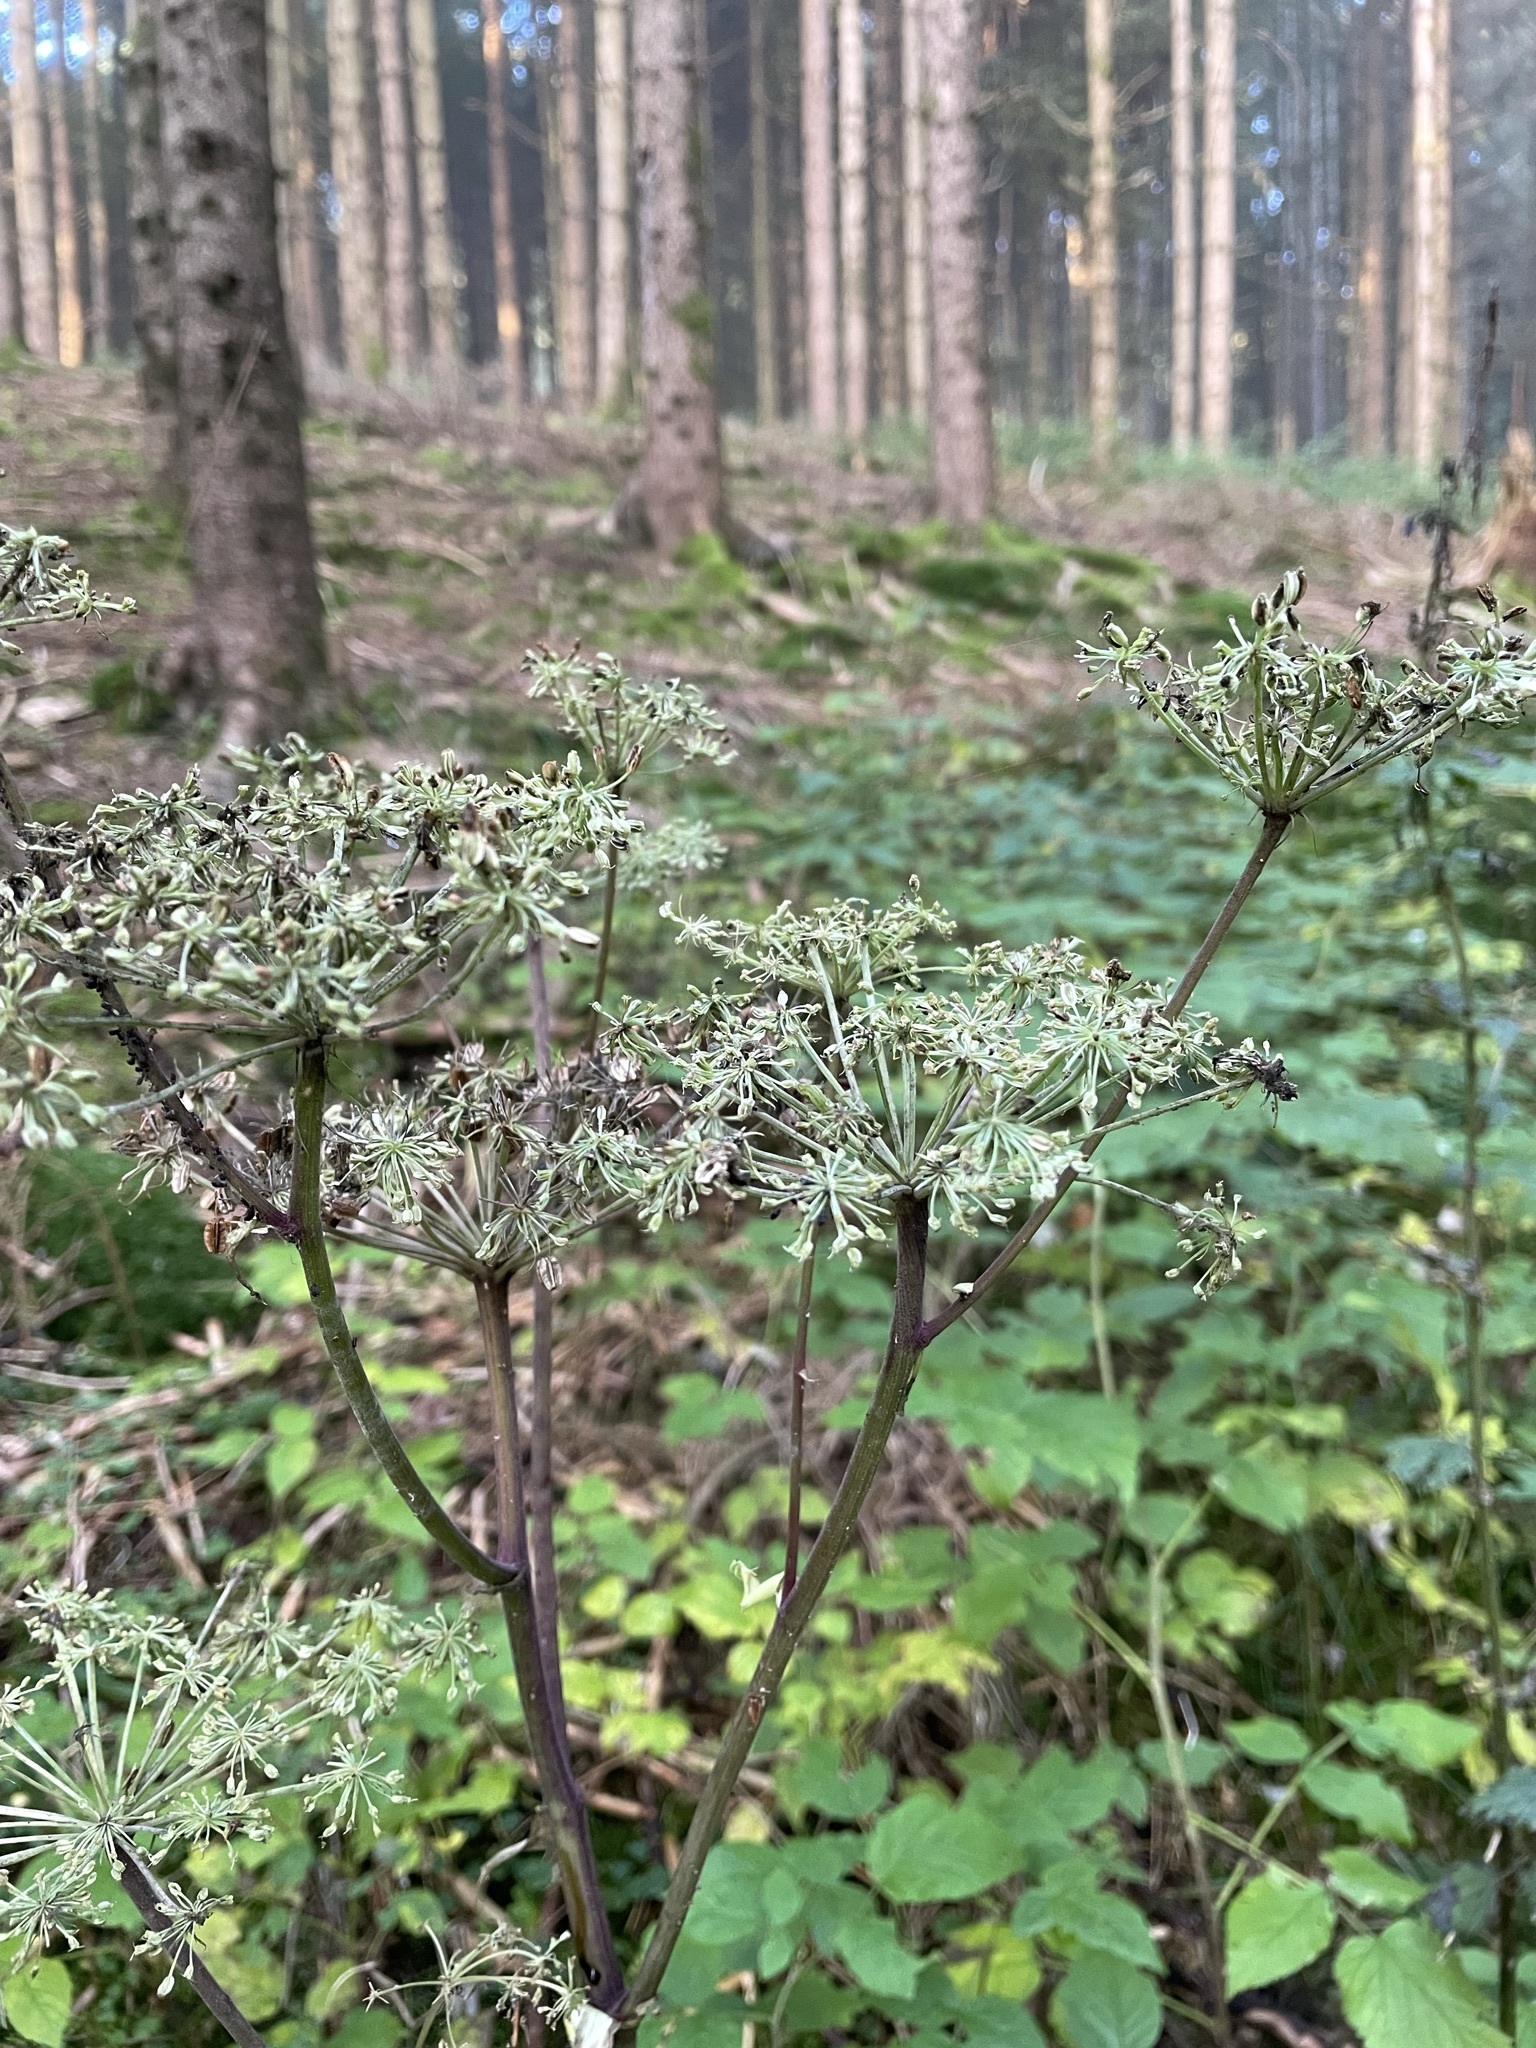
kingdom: Plantae
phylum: Tracheophyta
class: Magnoliopsida
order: Apiales
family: Apiaceae
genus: Angelica
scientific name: Angelica sylvestris
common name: Wild angelica
